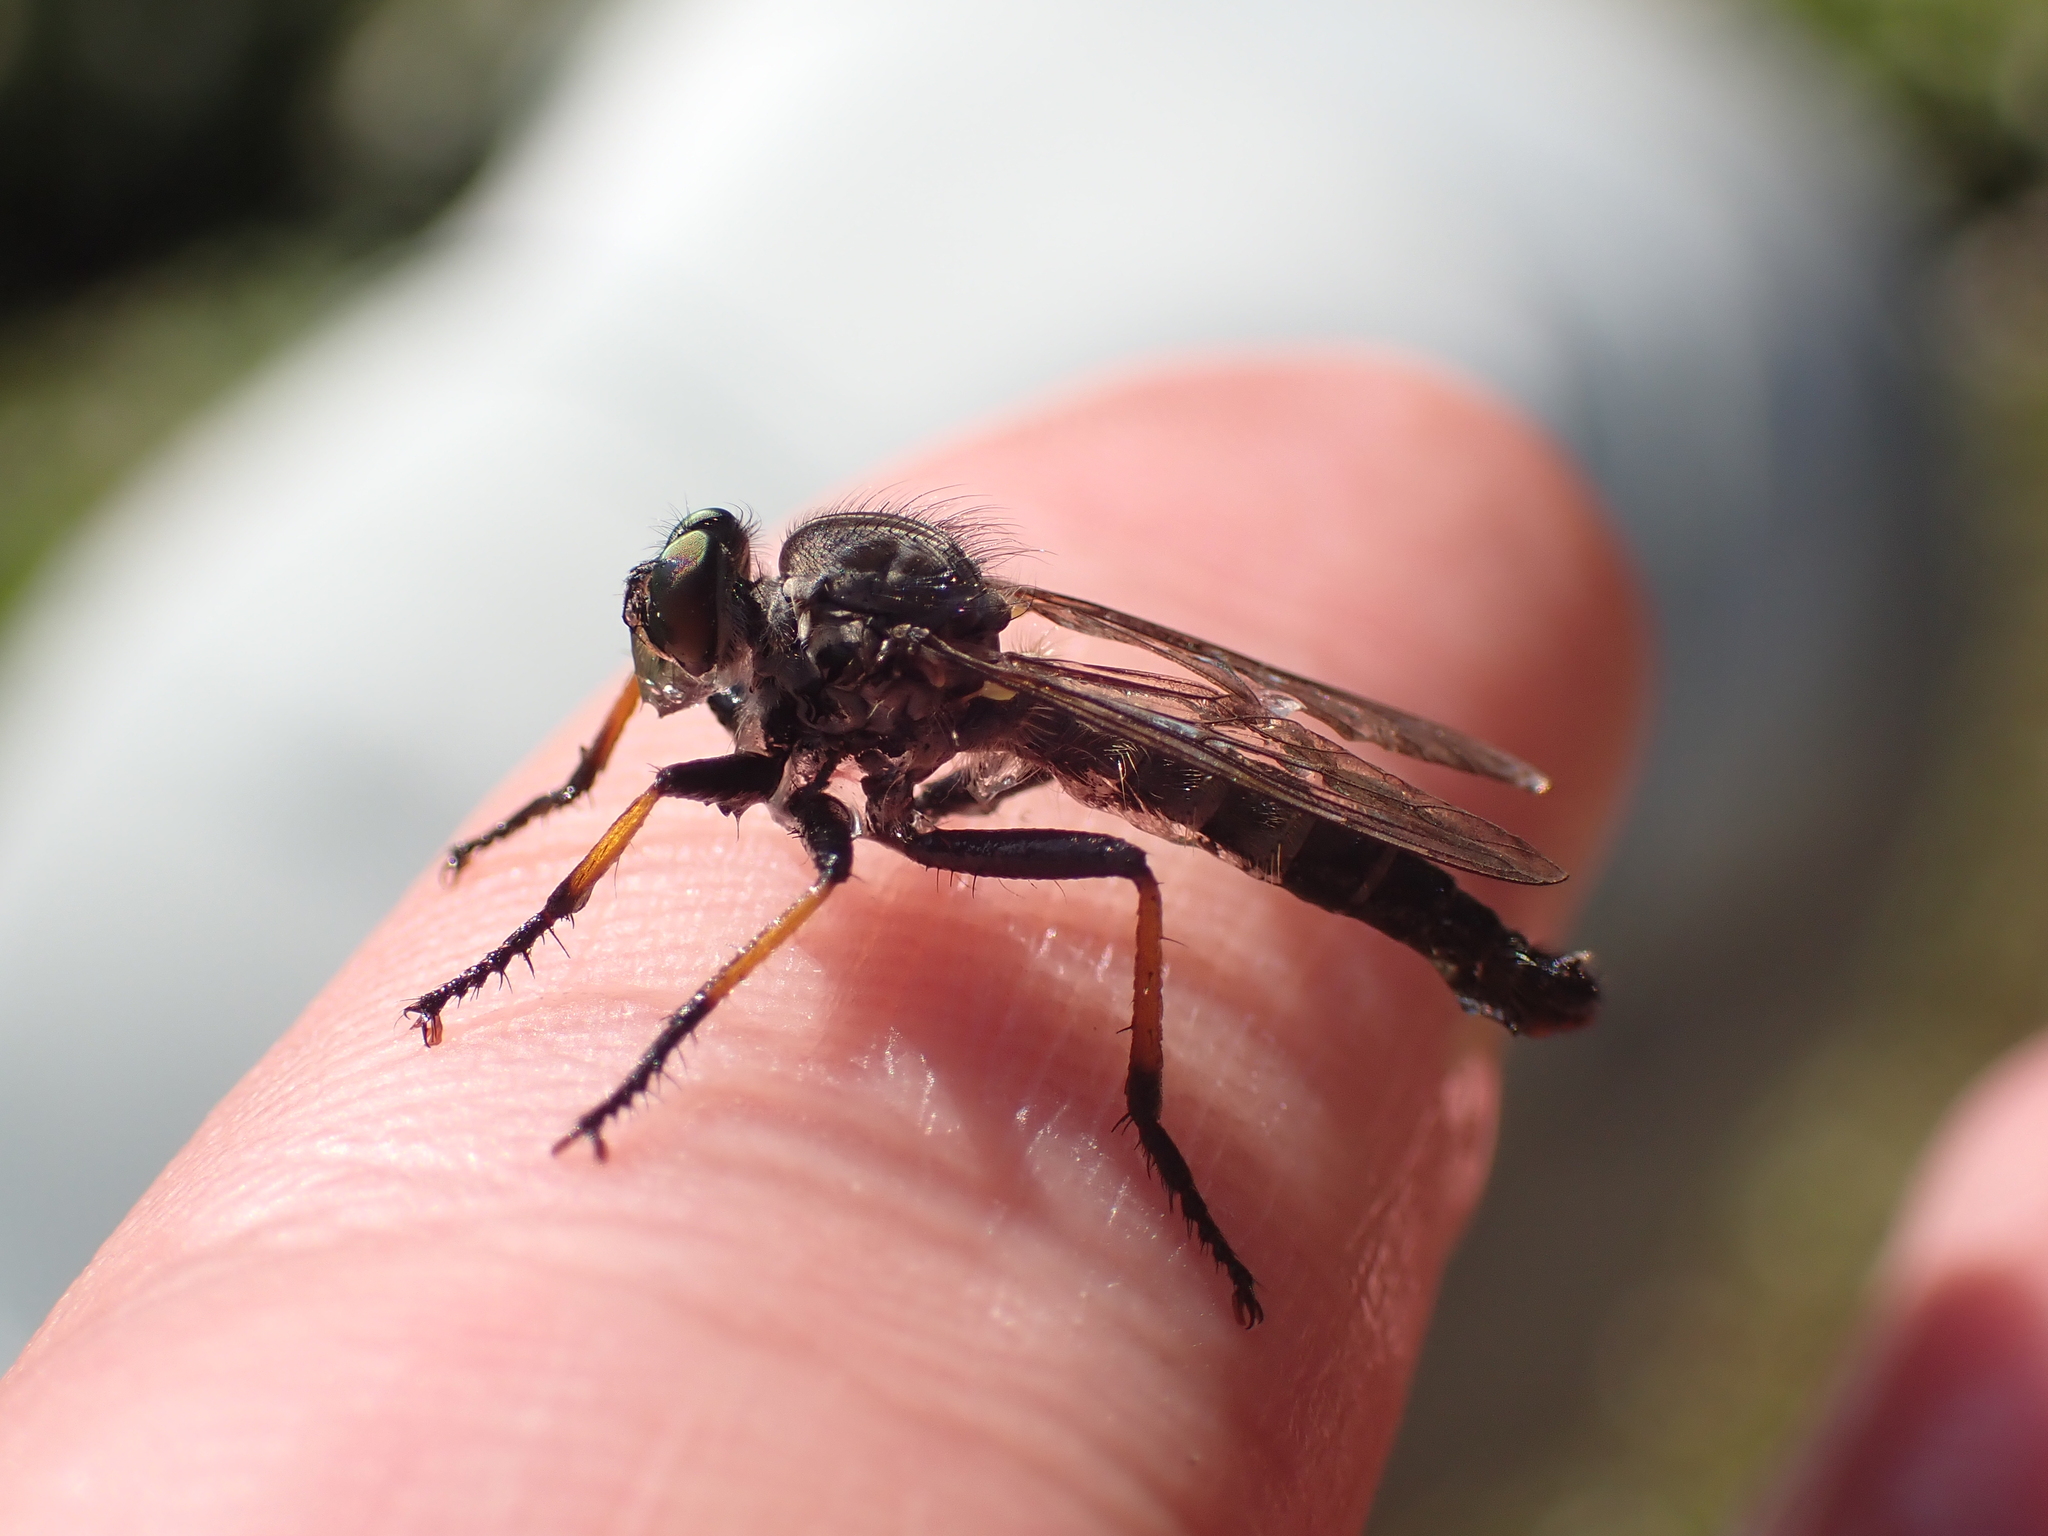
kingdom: Animalia
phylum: Arthropoda
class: Insecta
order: Diptera
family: Asilidae
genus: Neoitamus
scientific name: Neoitamus
